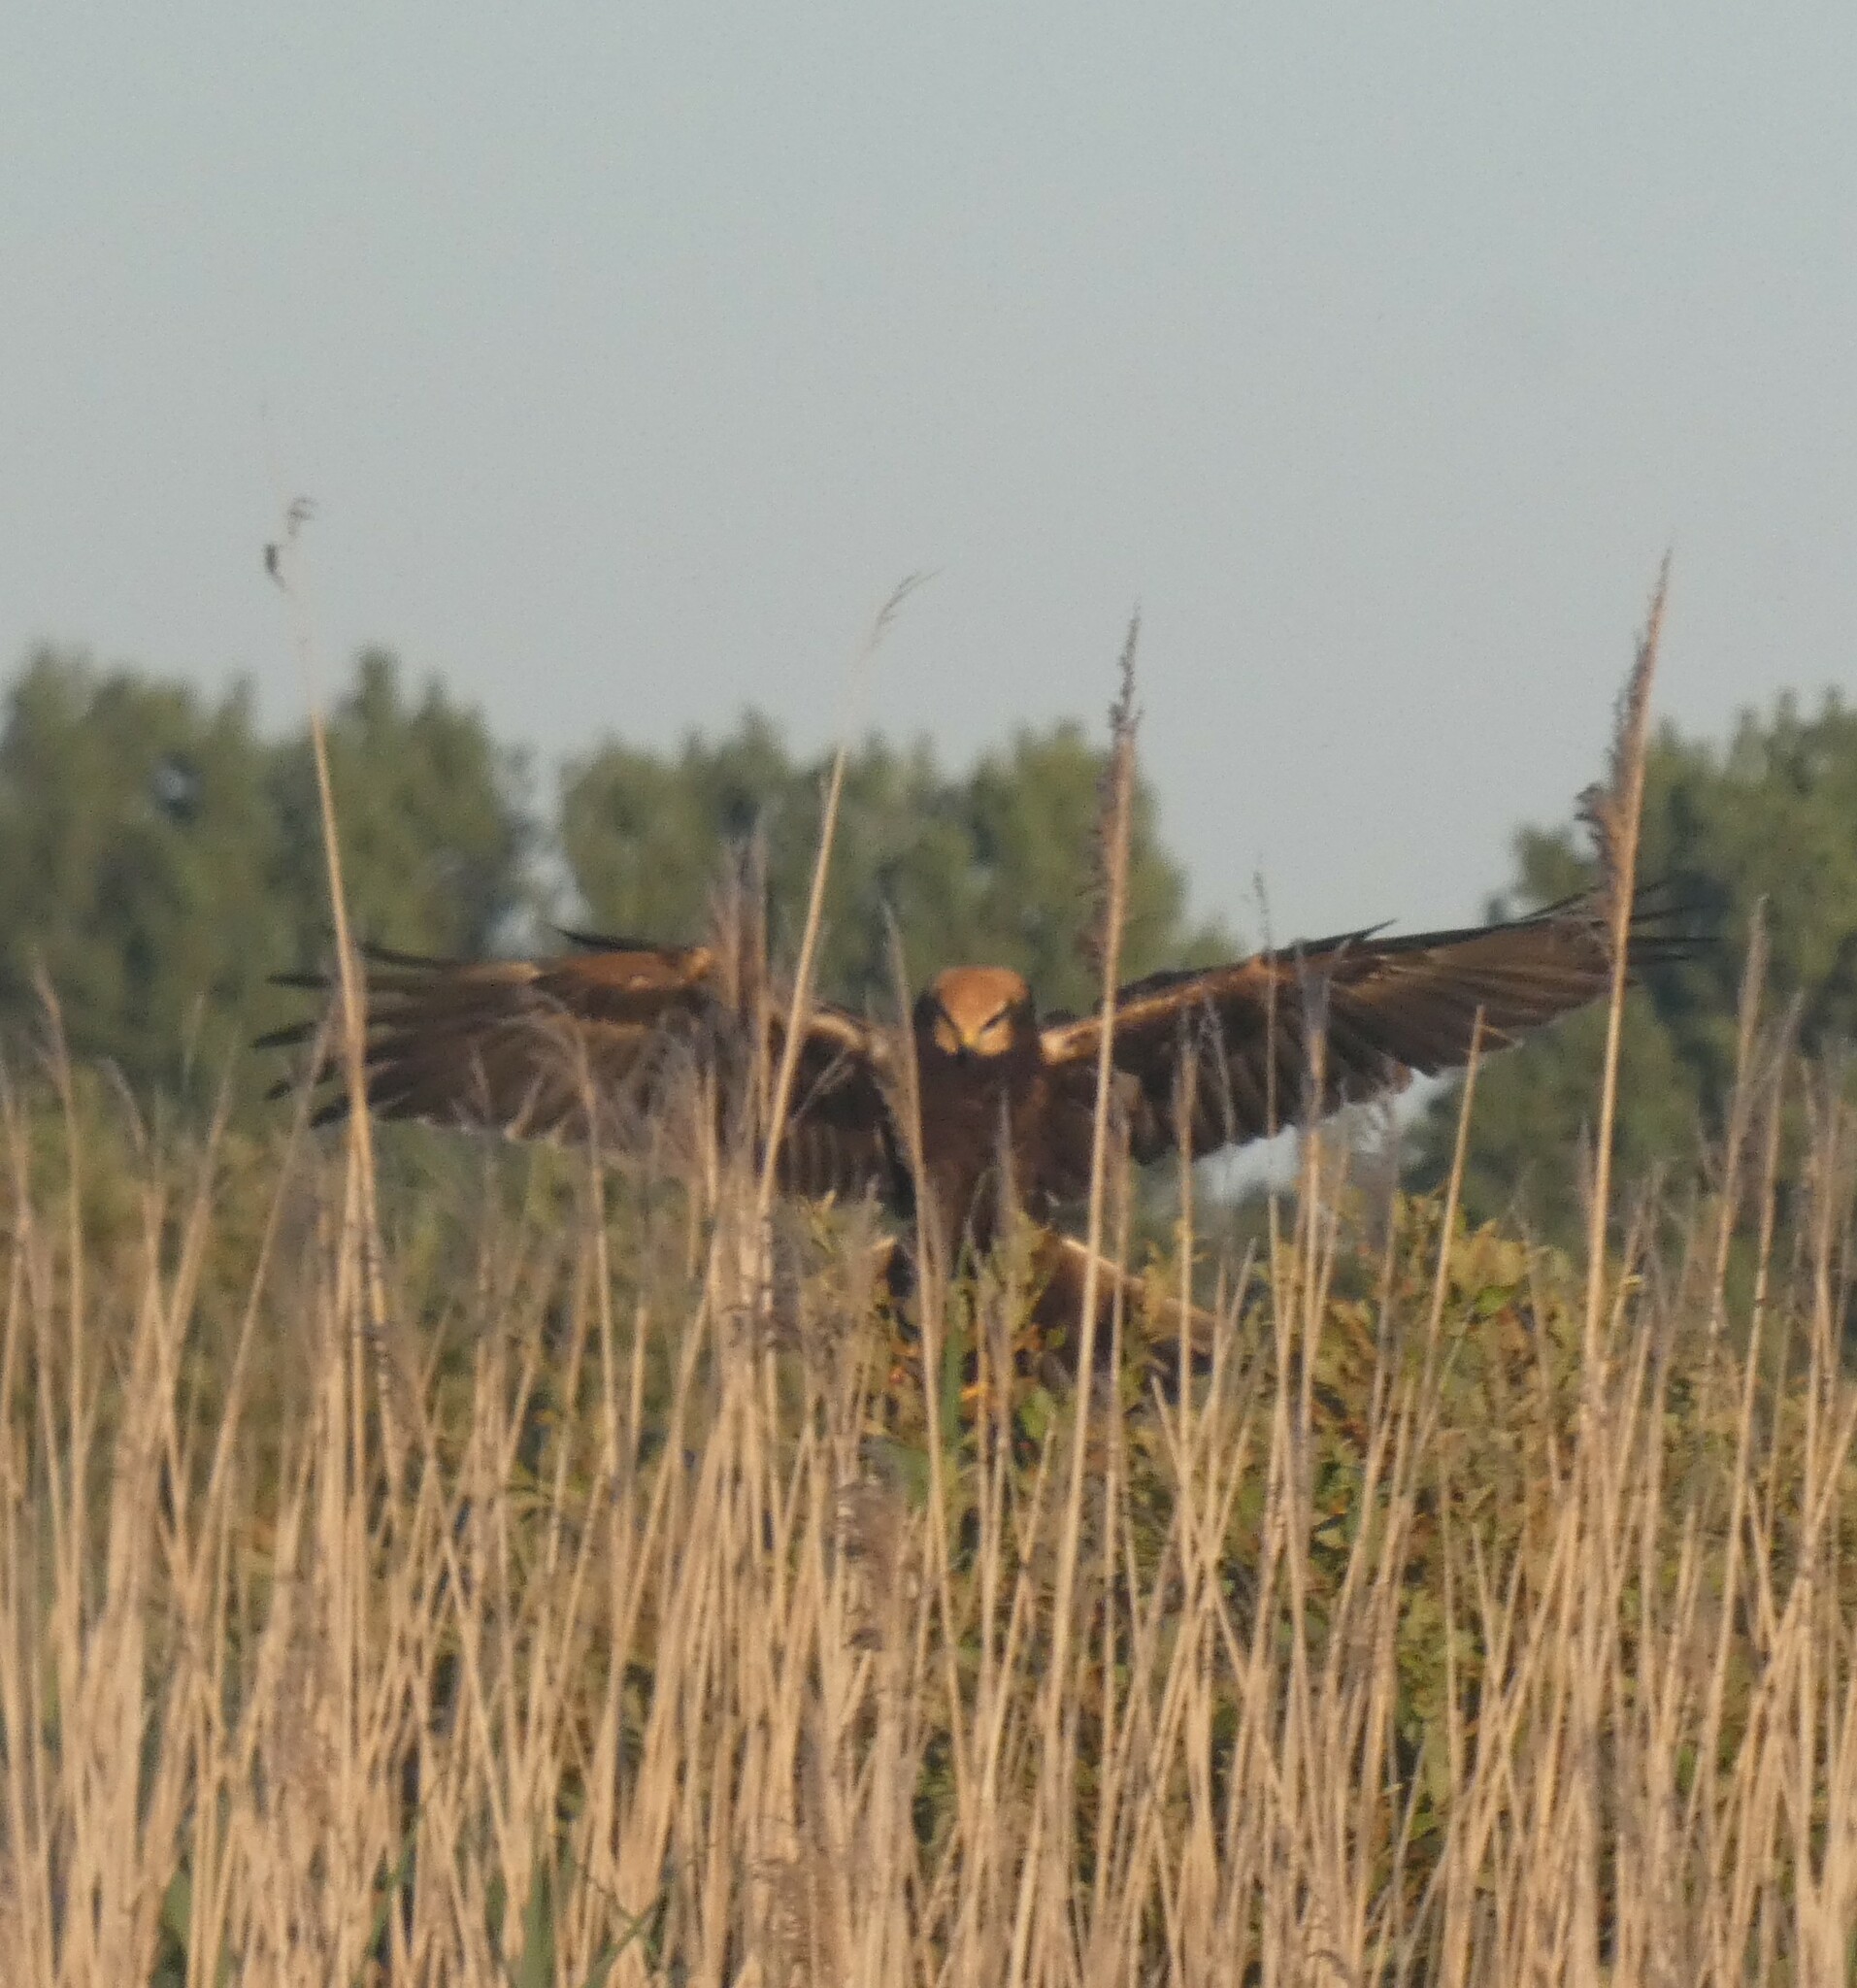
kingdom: Animalia
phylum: Chordata
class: Aves
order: Accipitriformes
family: Accipitridae
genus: Circus
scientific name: Circus aeruginosus
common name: Western marsh harrier
